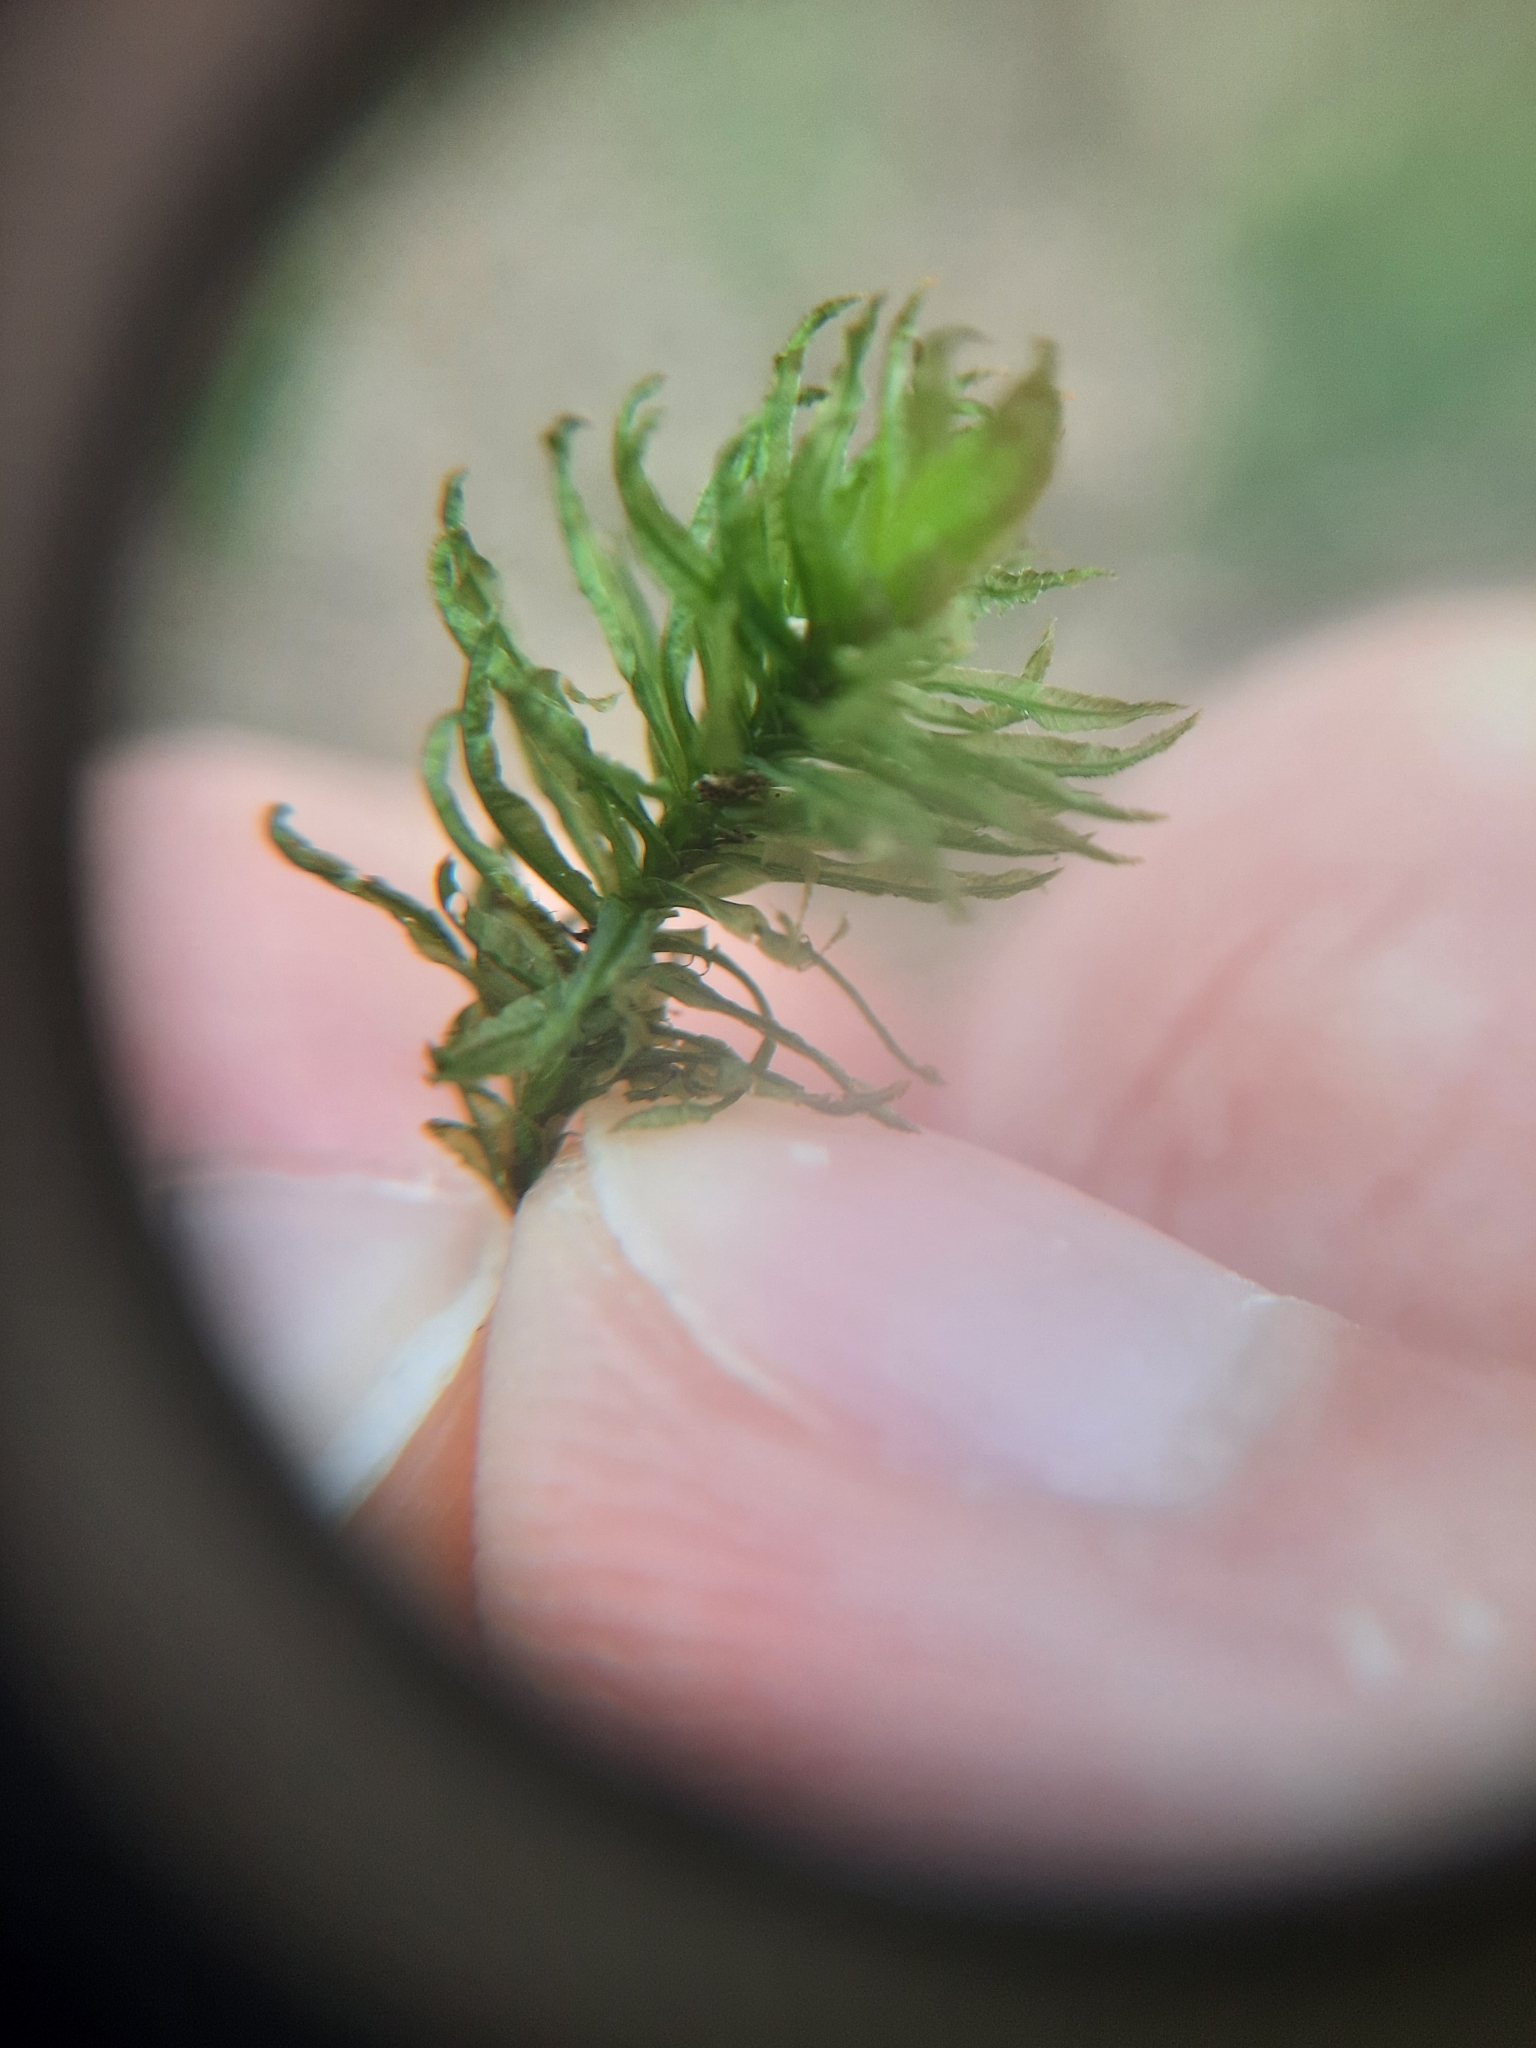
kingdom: Plantae
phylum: Bryophyta
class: Polytrichopsida
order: Polytrichales
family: Polytrichaceae
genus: Atrichum
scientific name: Atrichum undulatum
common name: Common smoothcap
